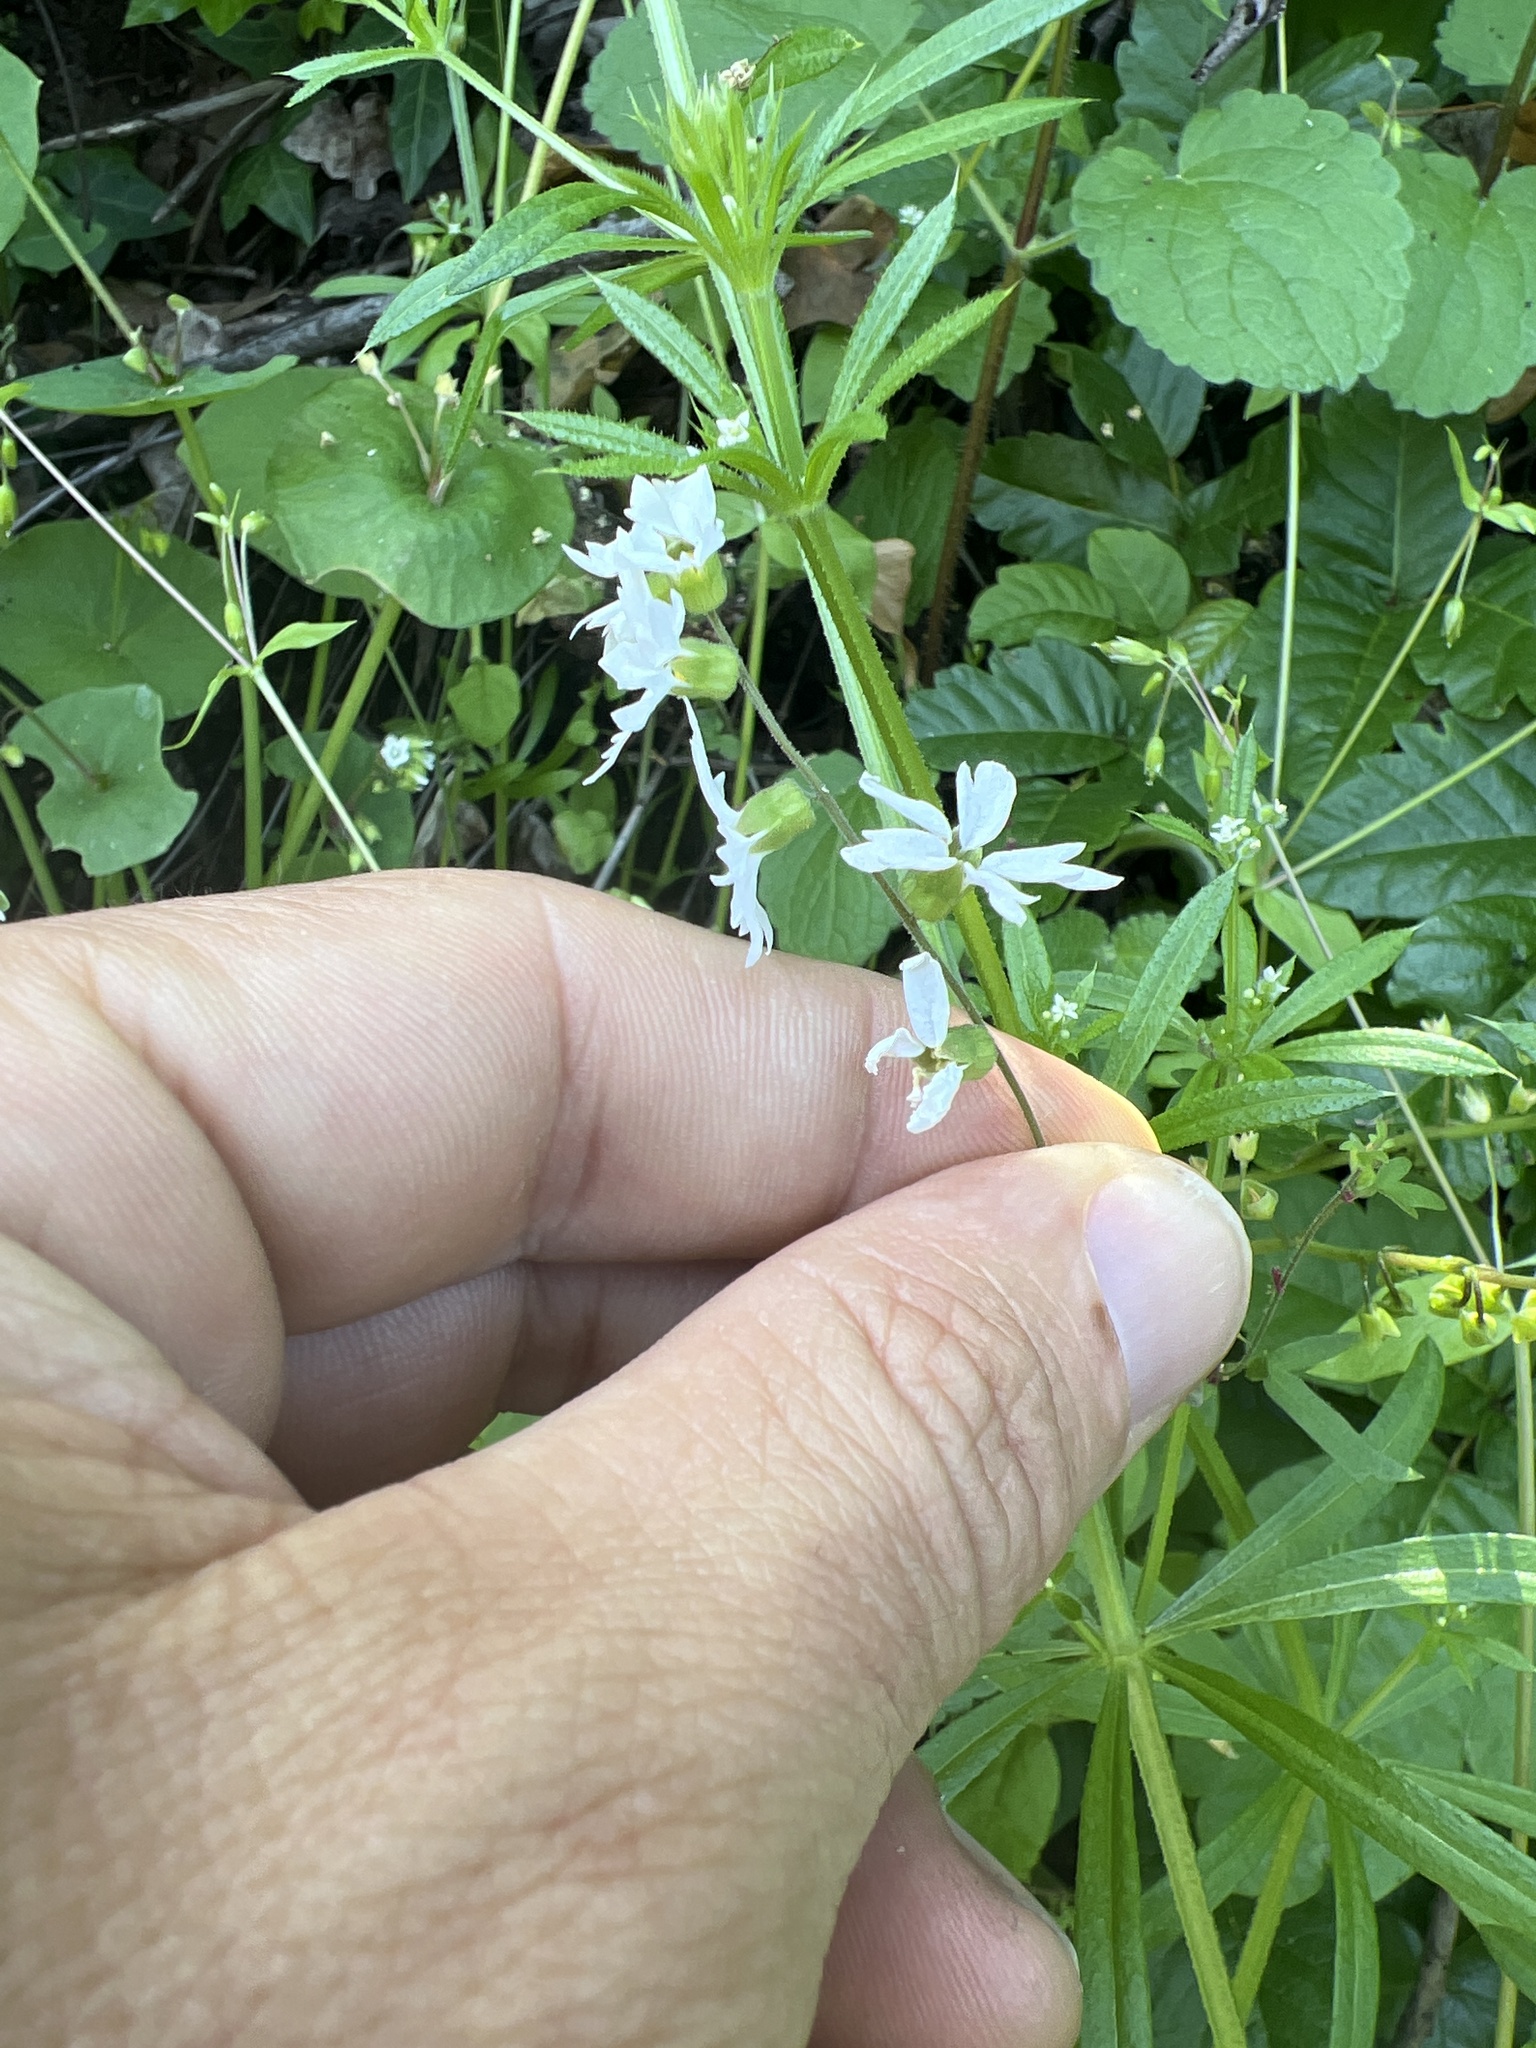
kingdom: Plantae
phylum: Tracheophyta
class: Magnoliopsida
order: Saxifragales
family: Saxifragaceae
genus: Lithophragma
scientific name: Lithophragma heterophyllum
